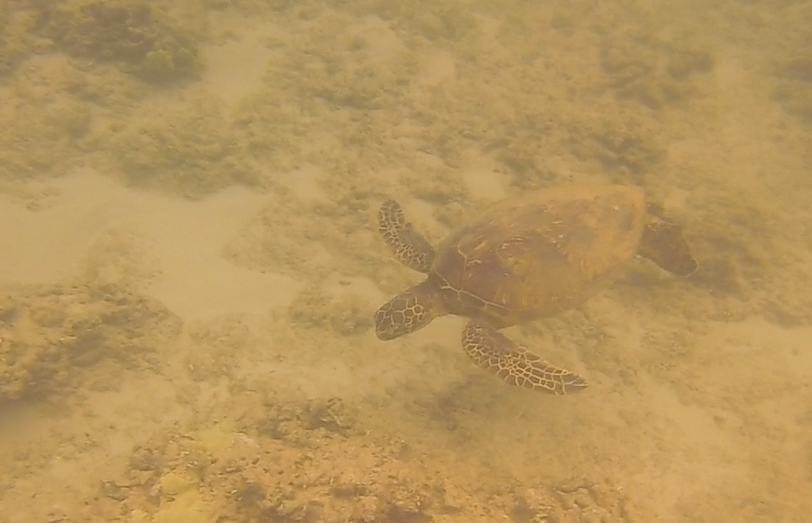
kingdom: Animalia
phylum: Chordata
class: Testudines
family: Cheloniidae
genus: Chelonia
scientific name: Chelonia mydas
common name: Green turtle
